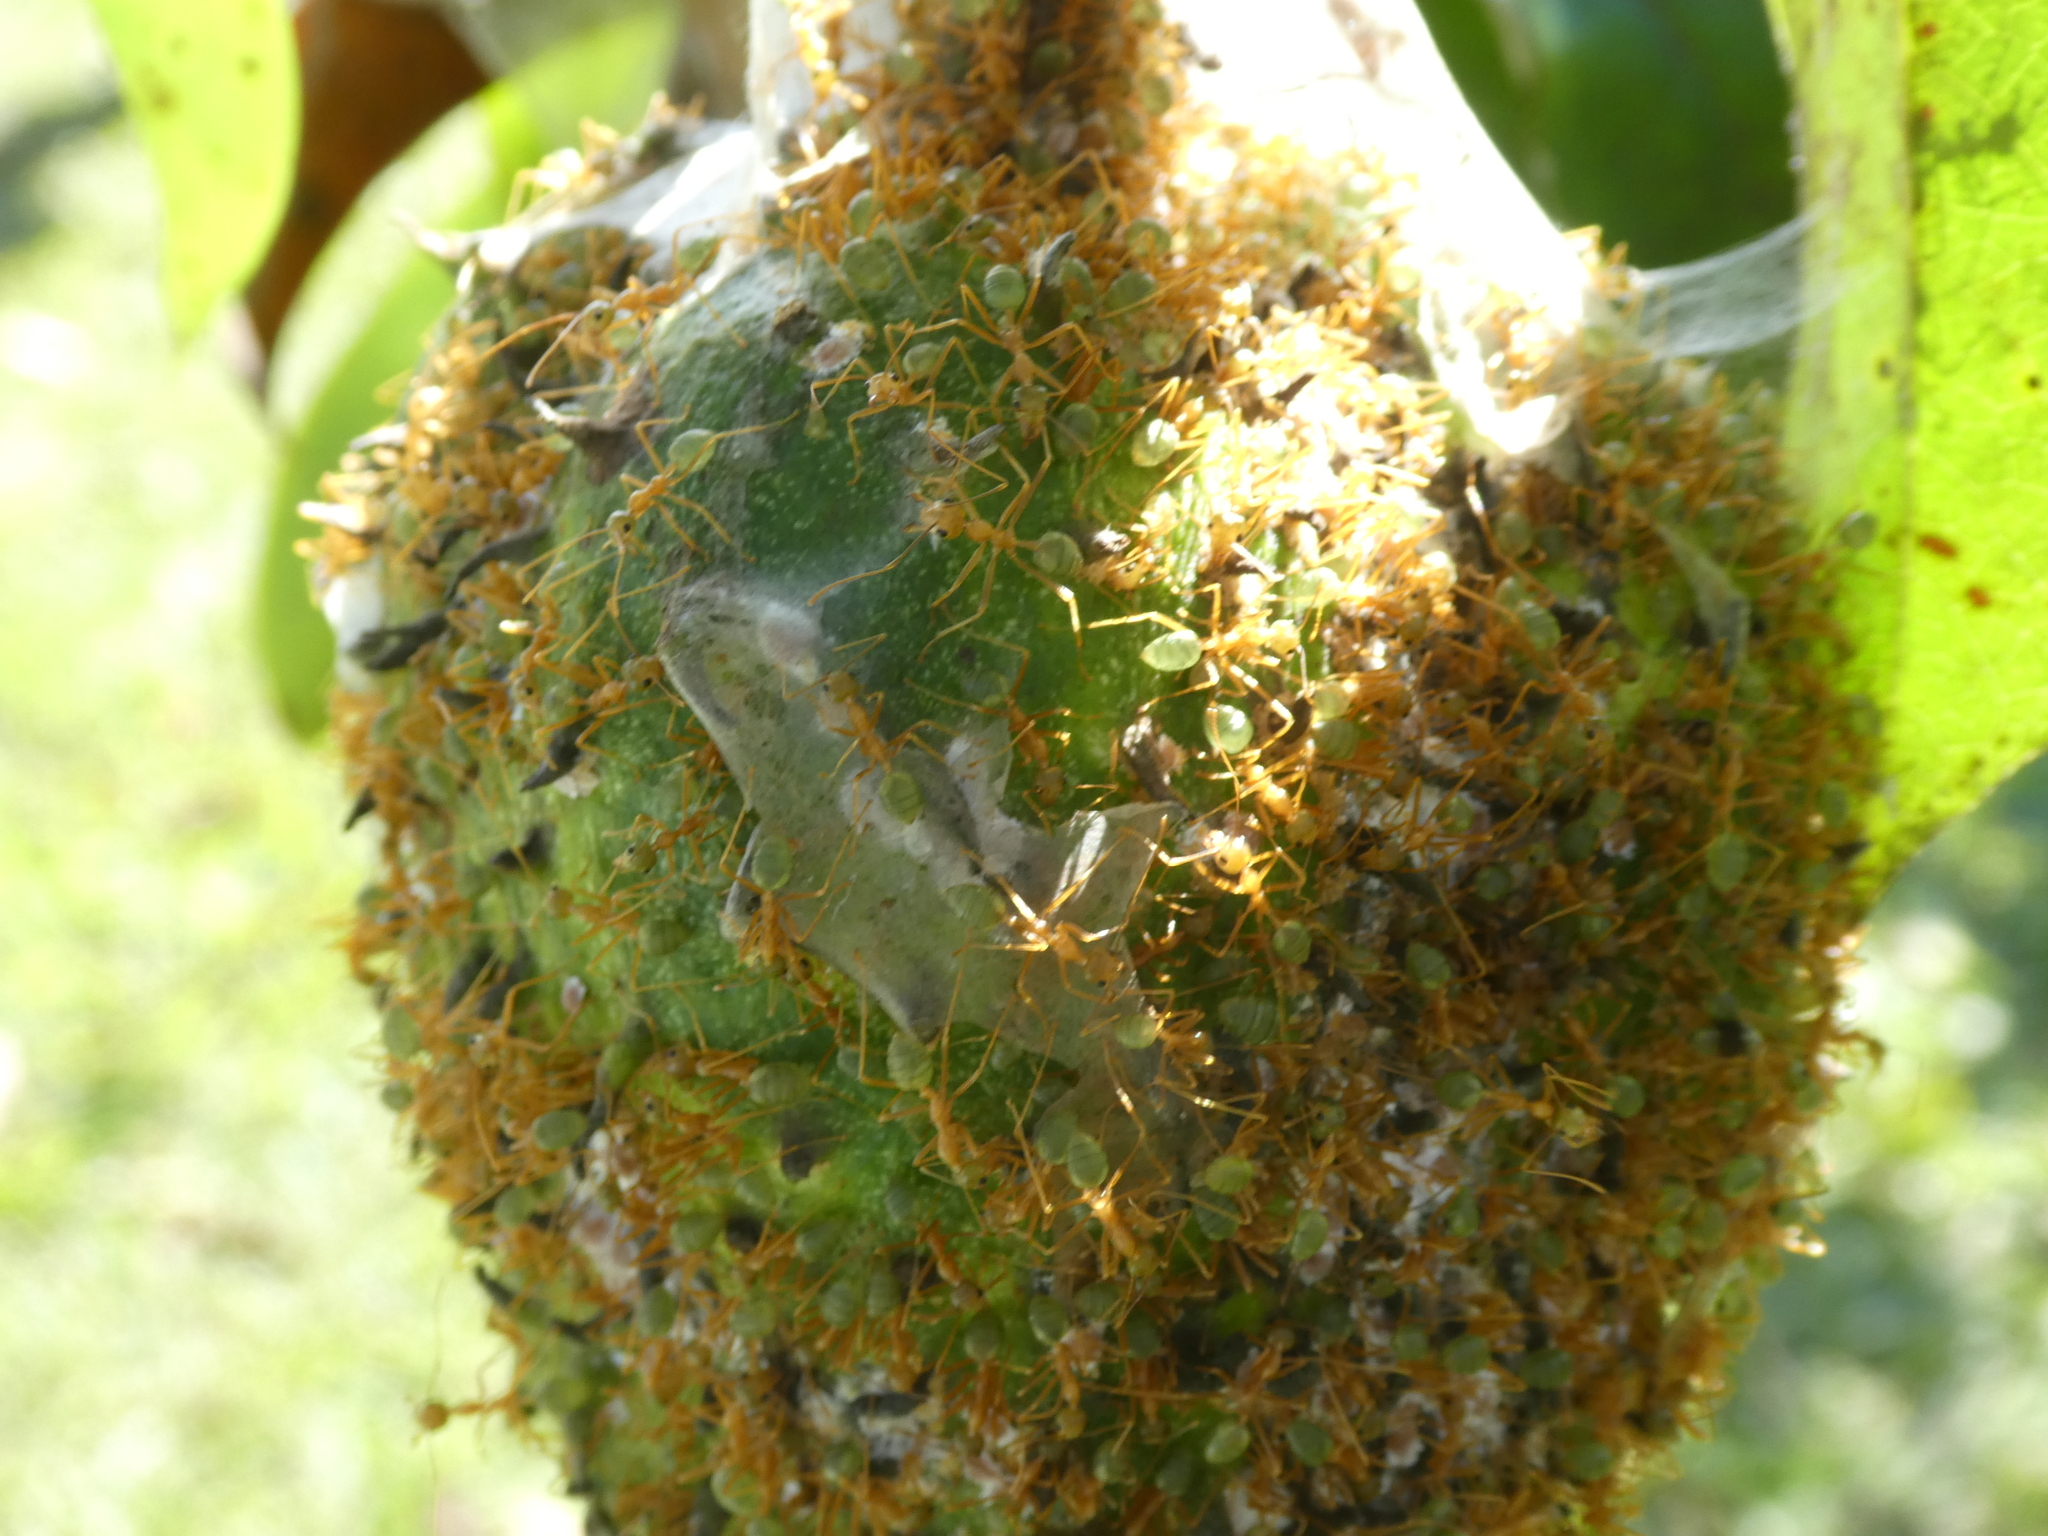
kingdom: Animalia
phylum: Arthropoda
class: Insecta
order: Hymenoptera
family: Formicidae
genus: Oecophylla
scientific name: Oecophylla smaragdina
